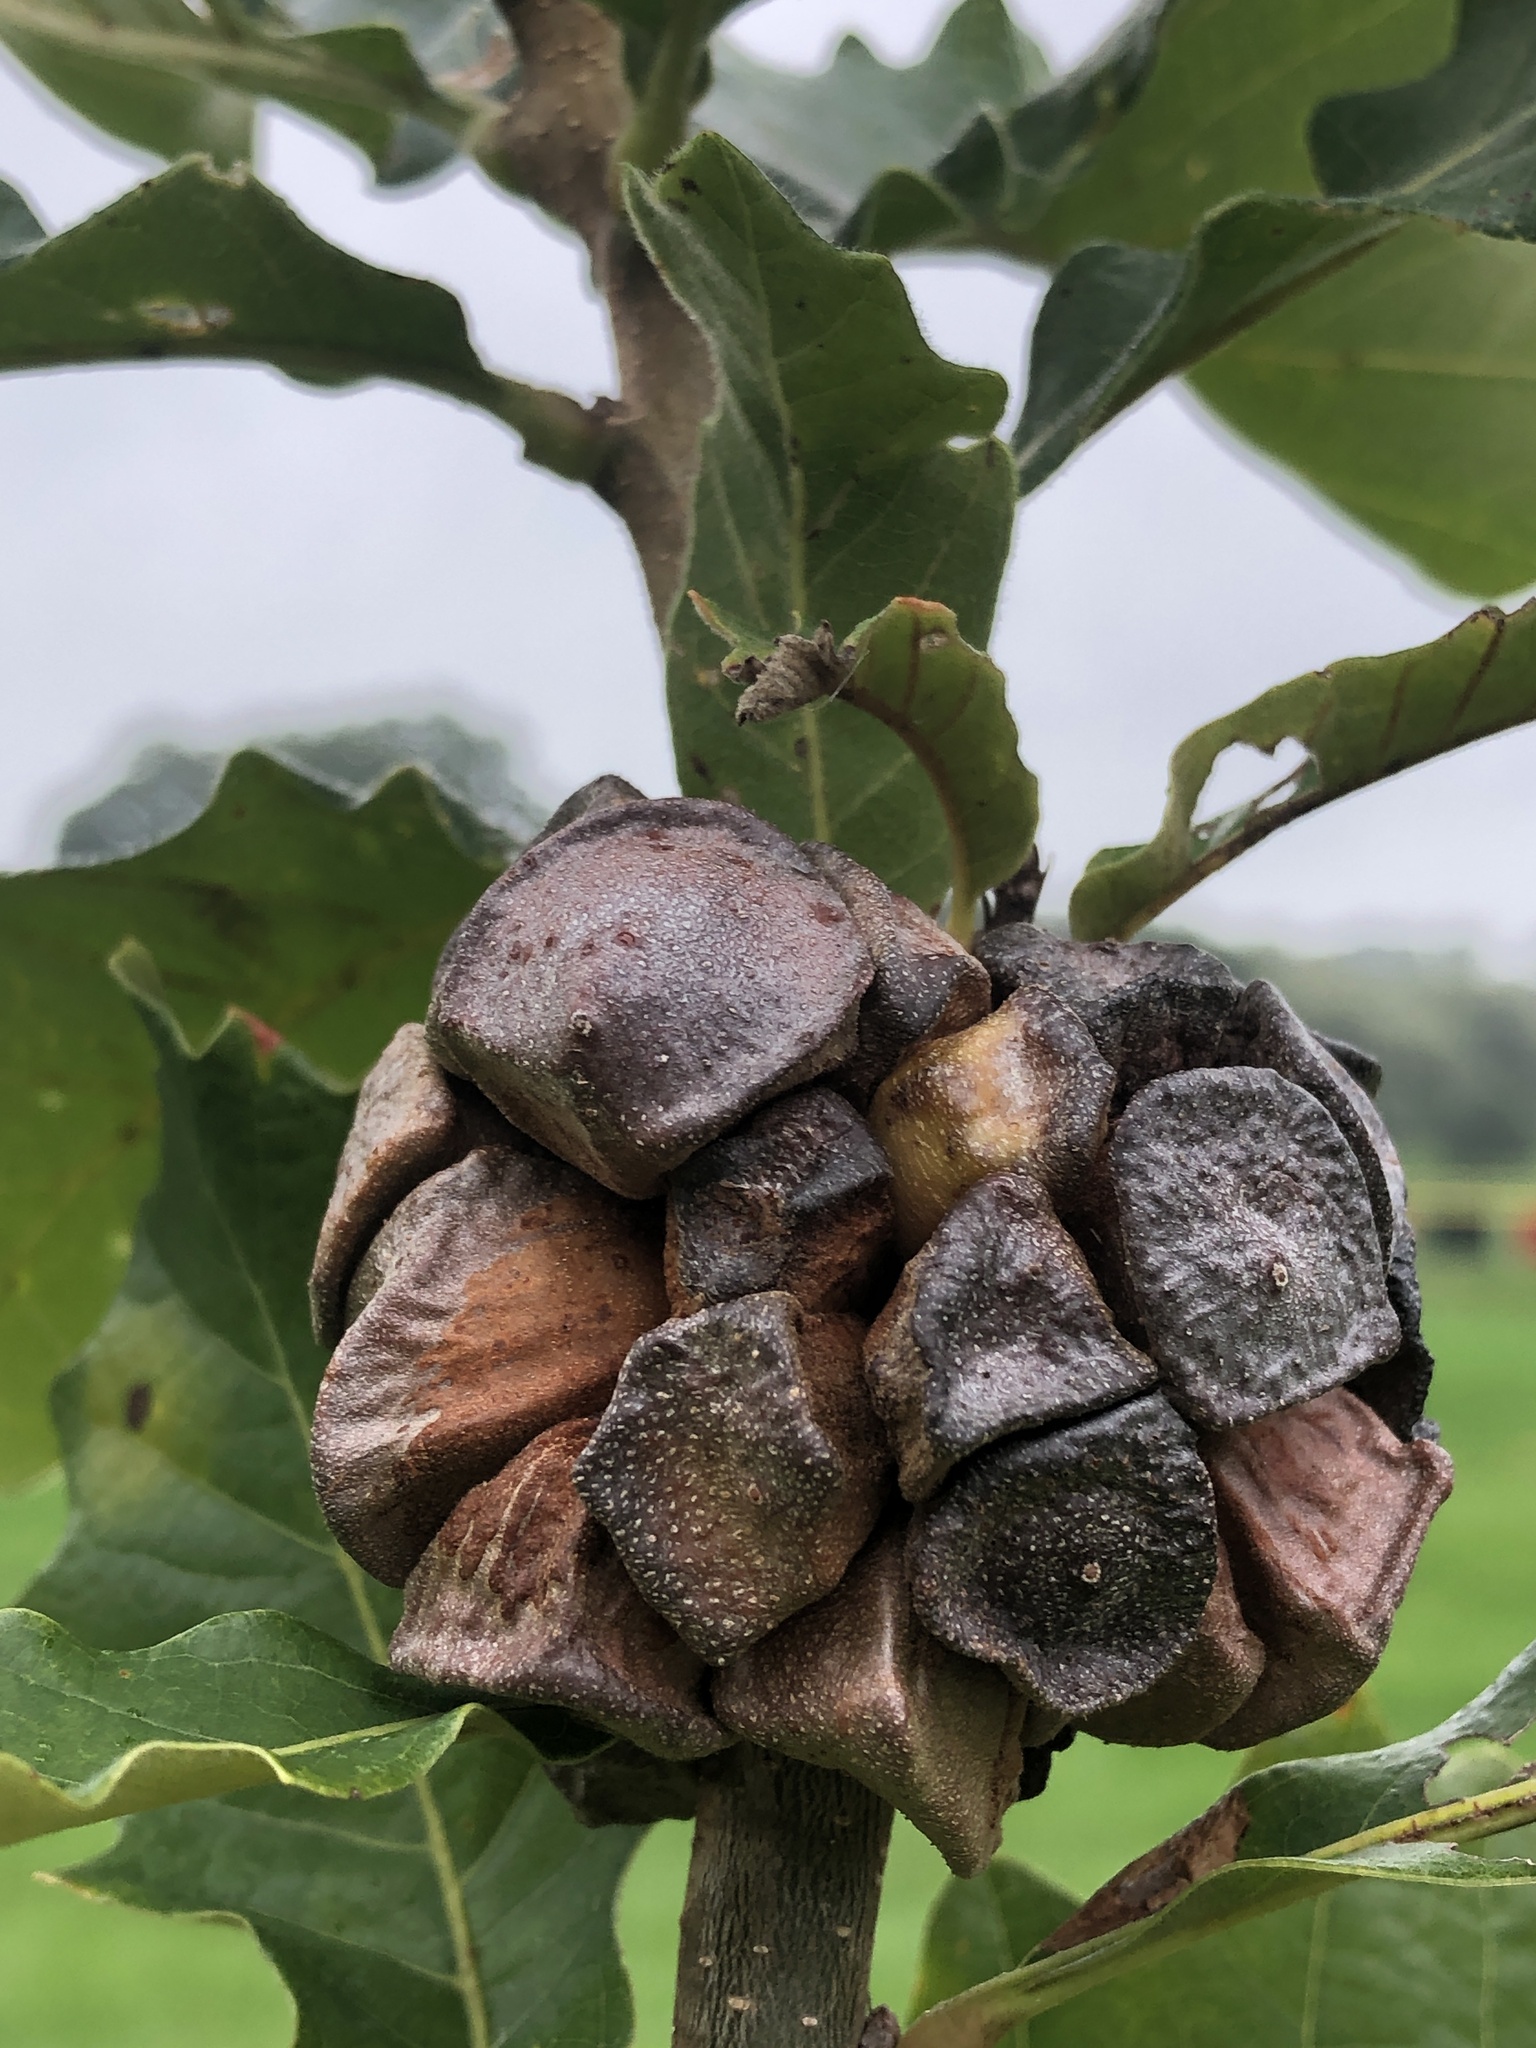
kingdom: Animalia
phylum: Arthropoda
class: Insecta
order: Hymenoptera
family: Cynipidae
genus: Andricus
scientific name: Andricus
